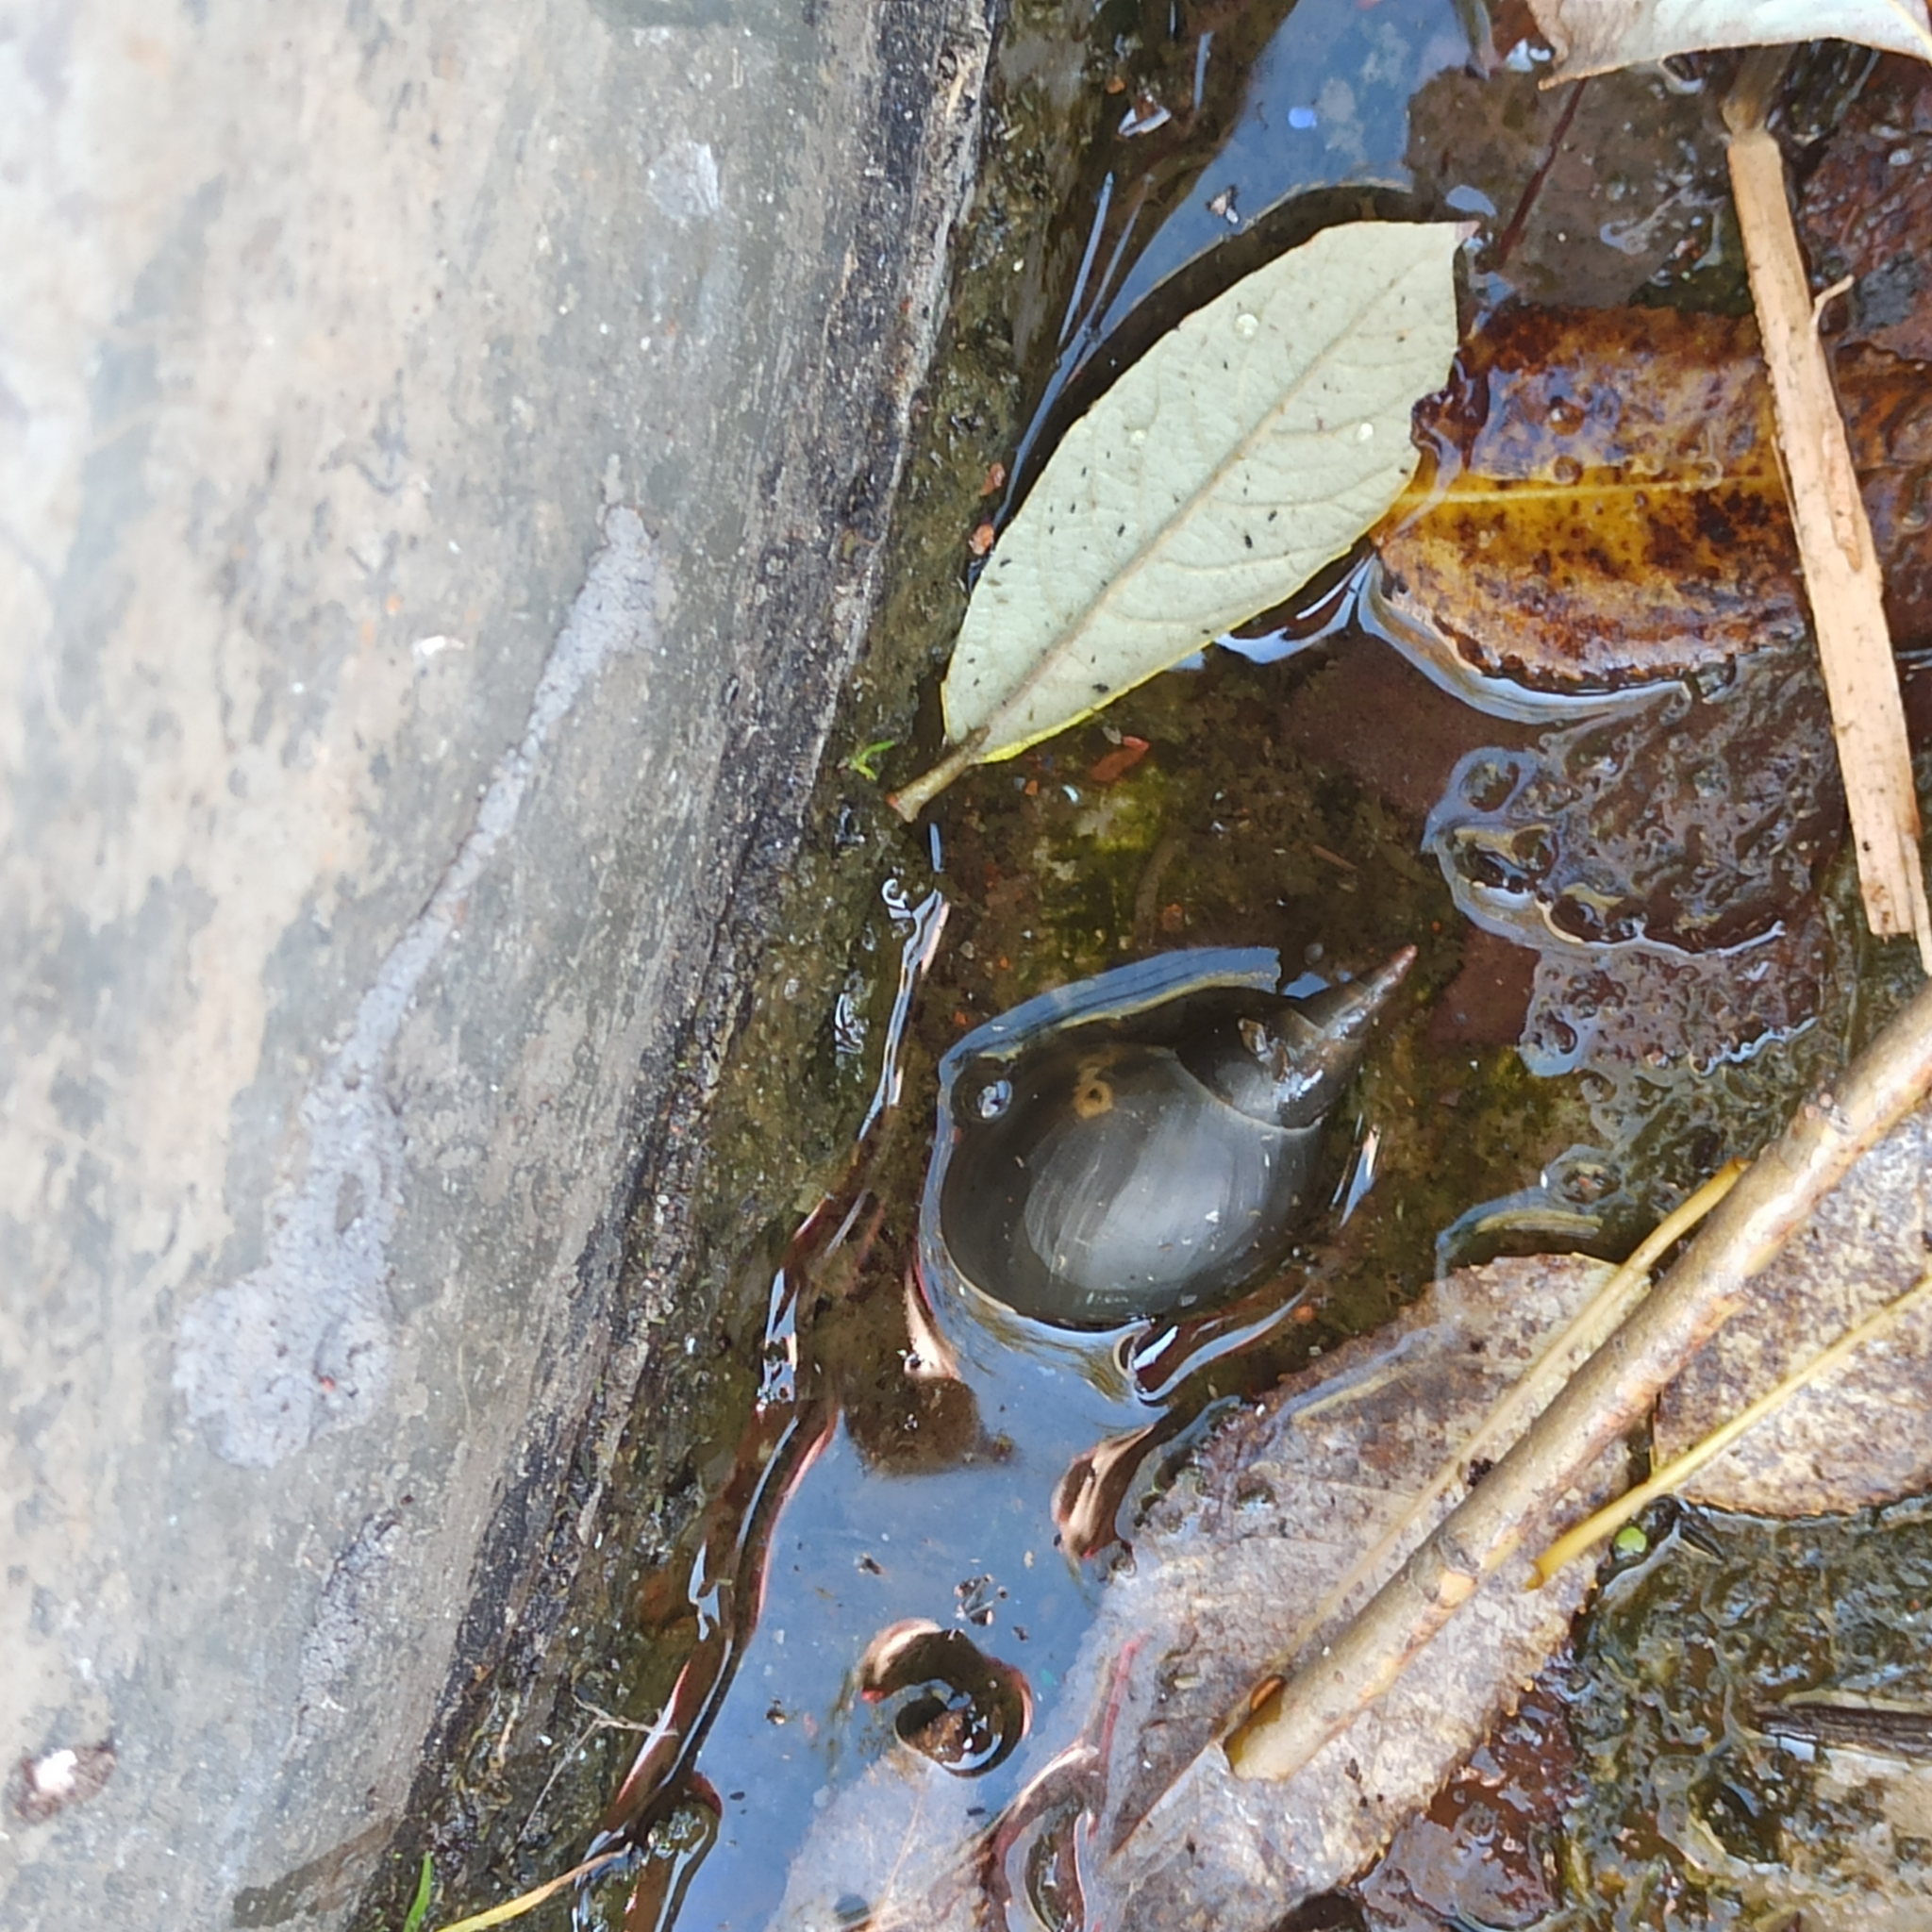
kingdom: Animalia
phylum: Mollusca
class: Gastropoda
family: Lymnaeidae
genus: Lymnaea
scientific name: Lymnaea stagnalis
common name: Great pond snail
